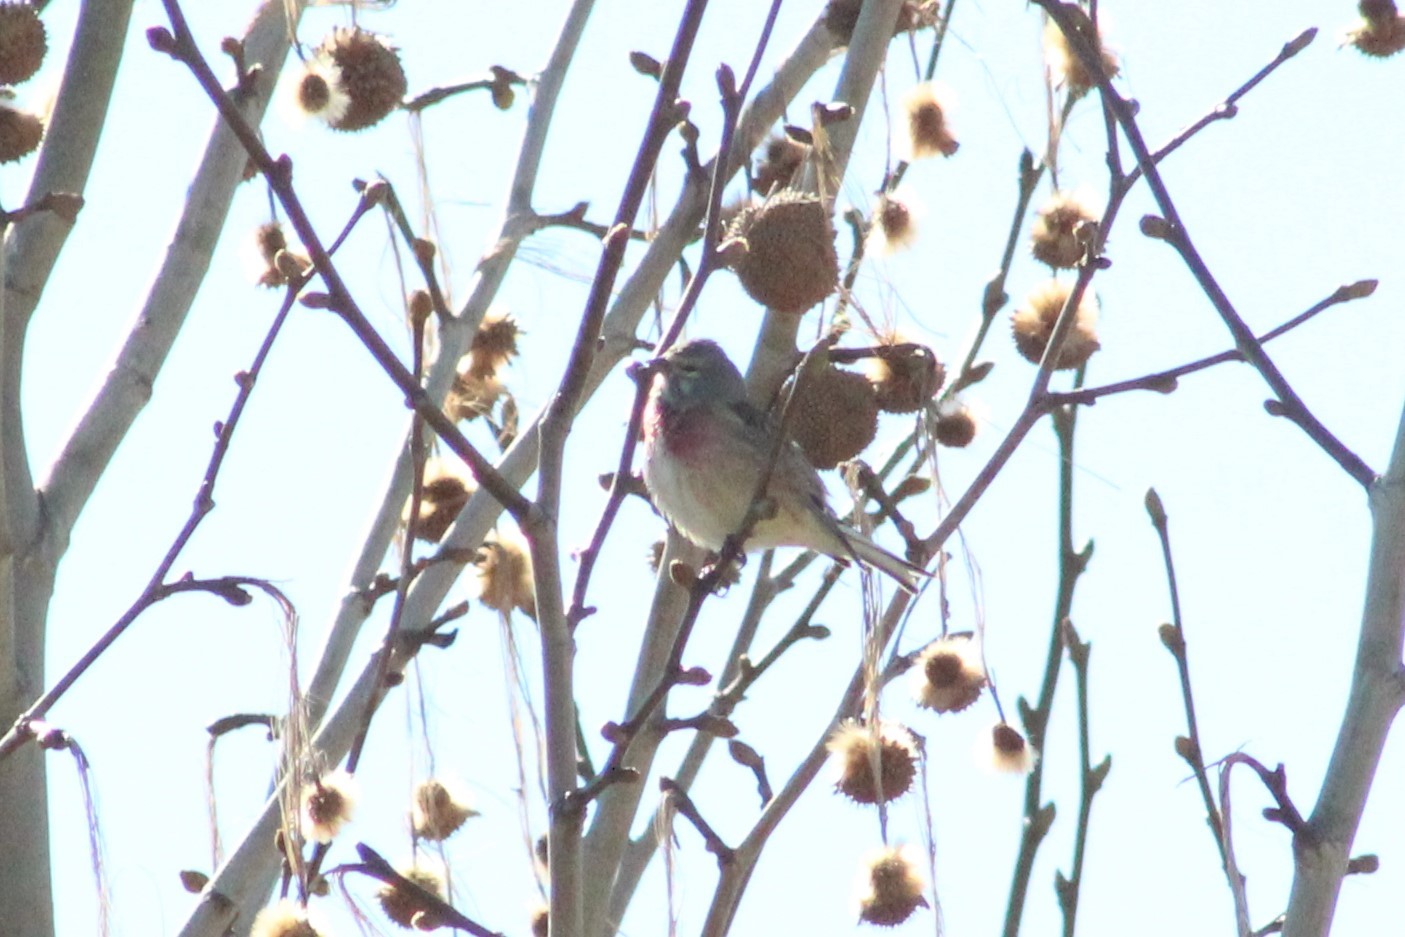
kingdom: Animalia
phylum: Chordata
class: Aves
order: Passeriformes
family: Fringillidae
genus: Linaria
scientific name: Linaria cannabina
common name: Common linnet
